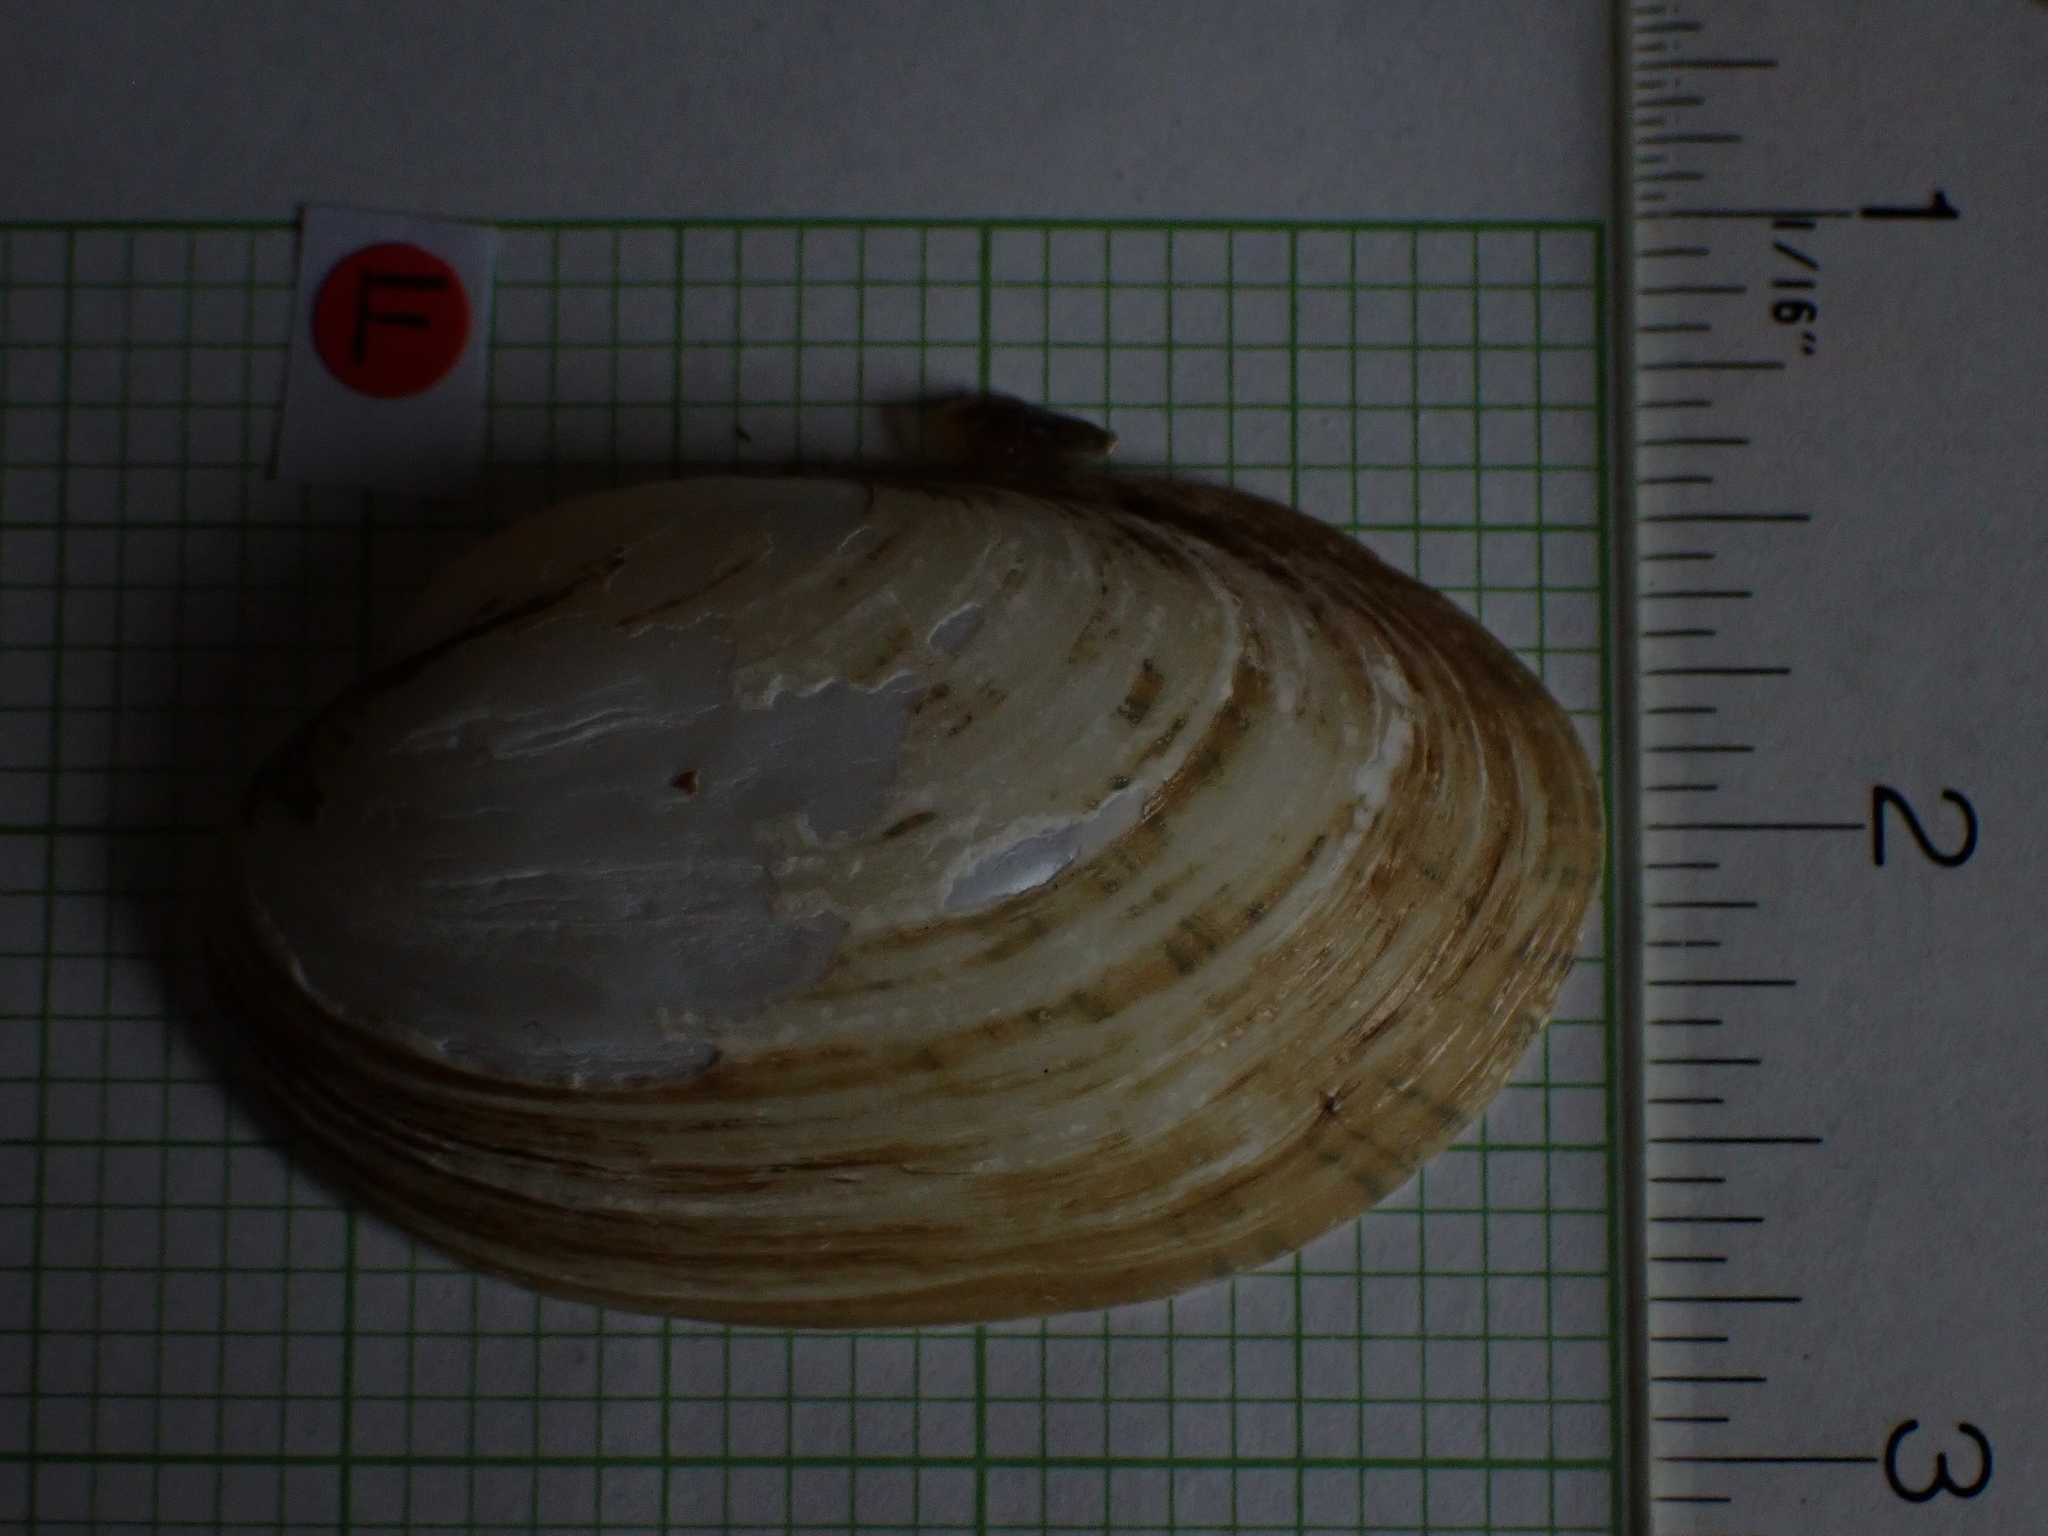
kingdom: Animalia
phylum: Mollusca
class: Bivalvia
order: Unionida
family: Unionidae
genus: Lampsilis
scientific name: Lampsilis siliquoidea
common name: Fatmucket
